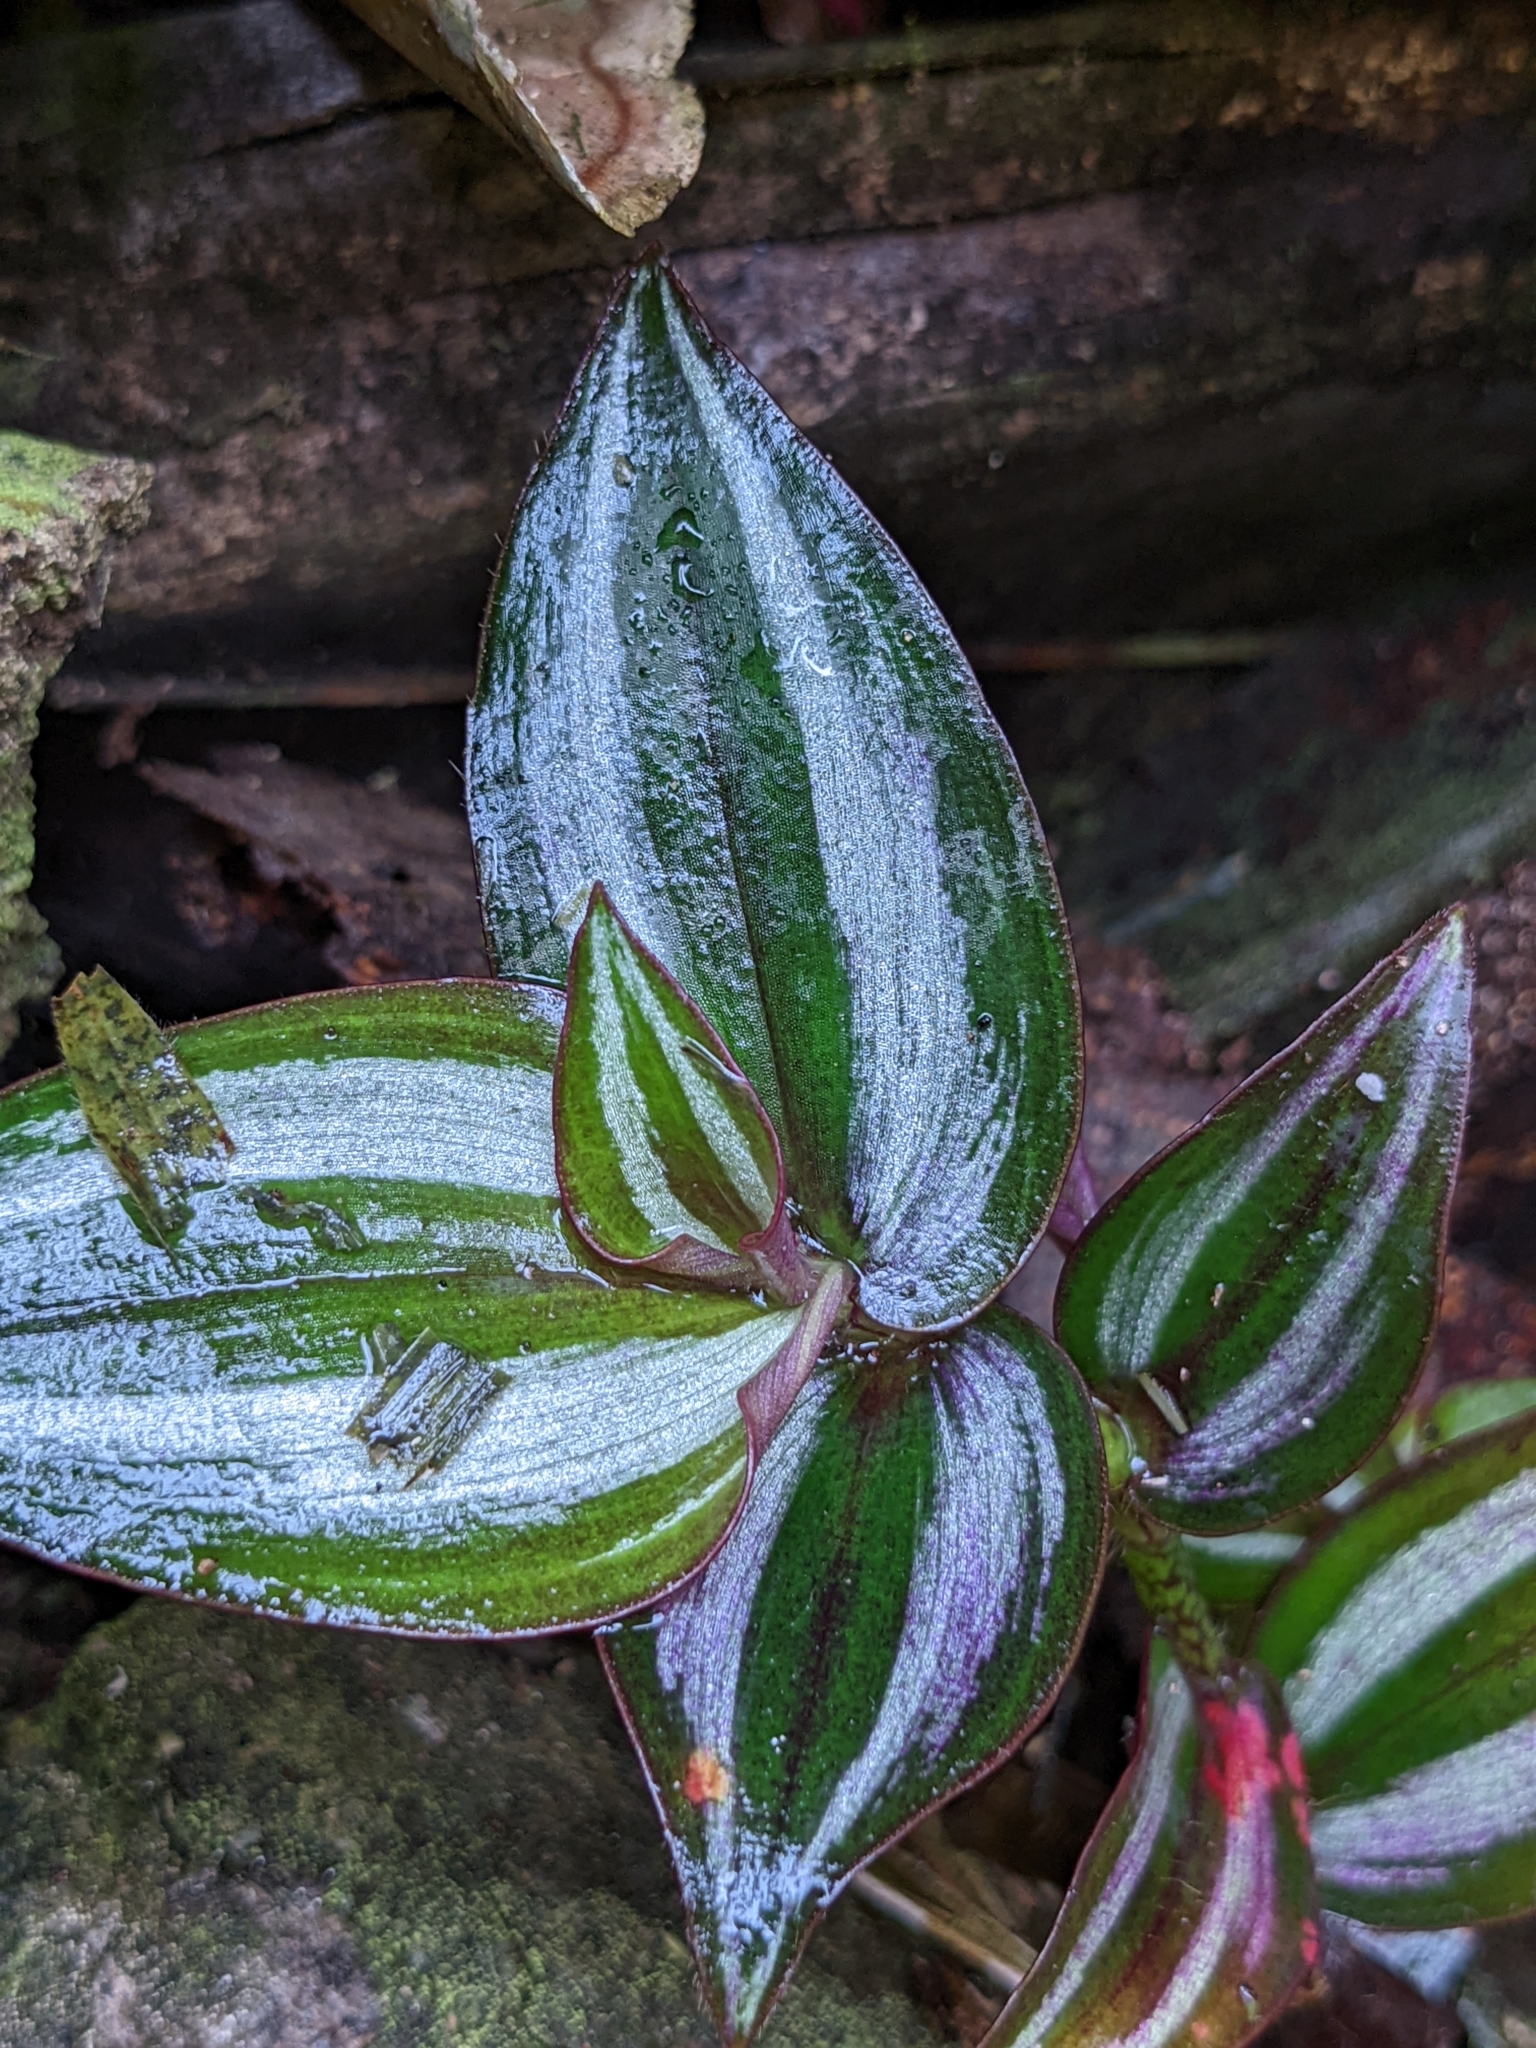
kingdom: Plantae
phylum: Tracheophyta
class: Liliopsida
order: Commelinales
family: Commelinaceae
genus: Tradescantia
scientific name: Tradescantia zebrina
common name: Inchplant
